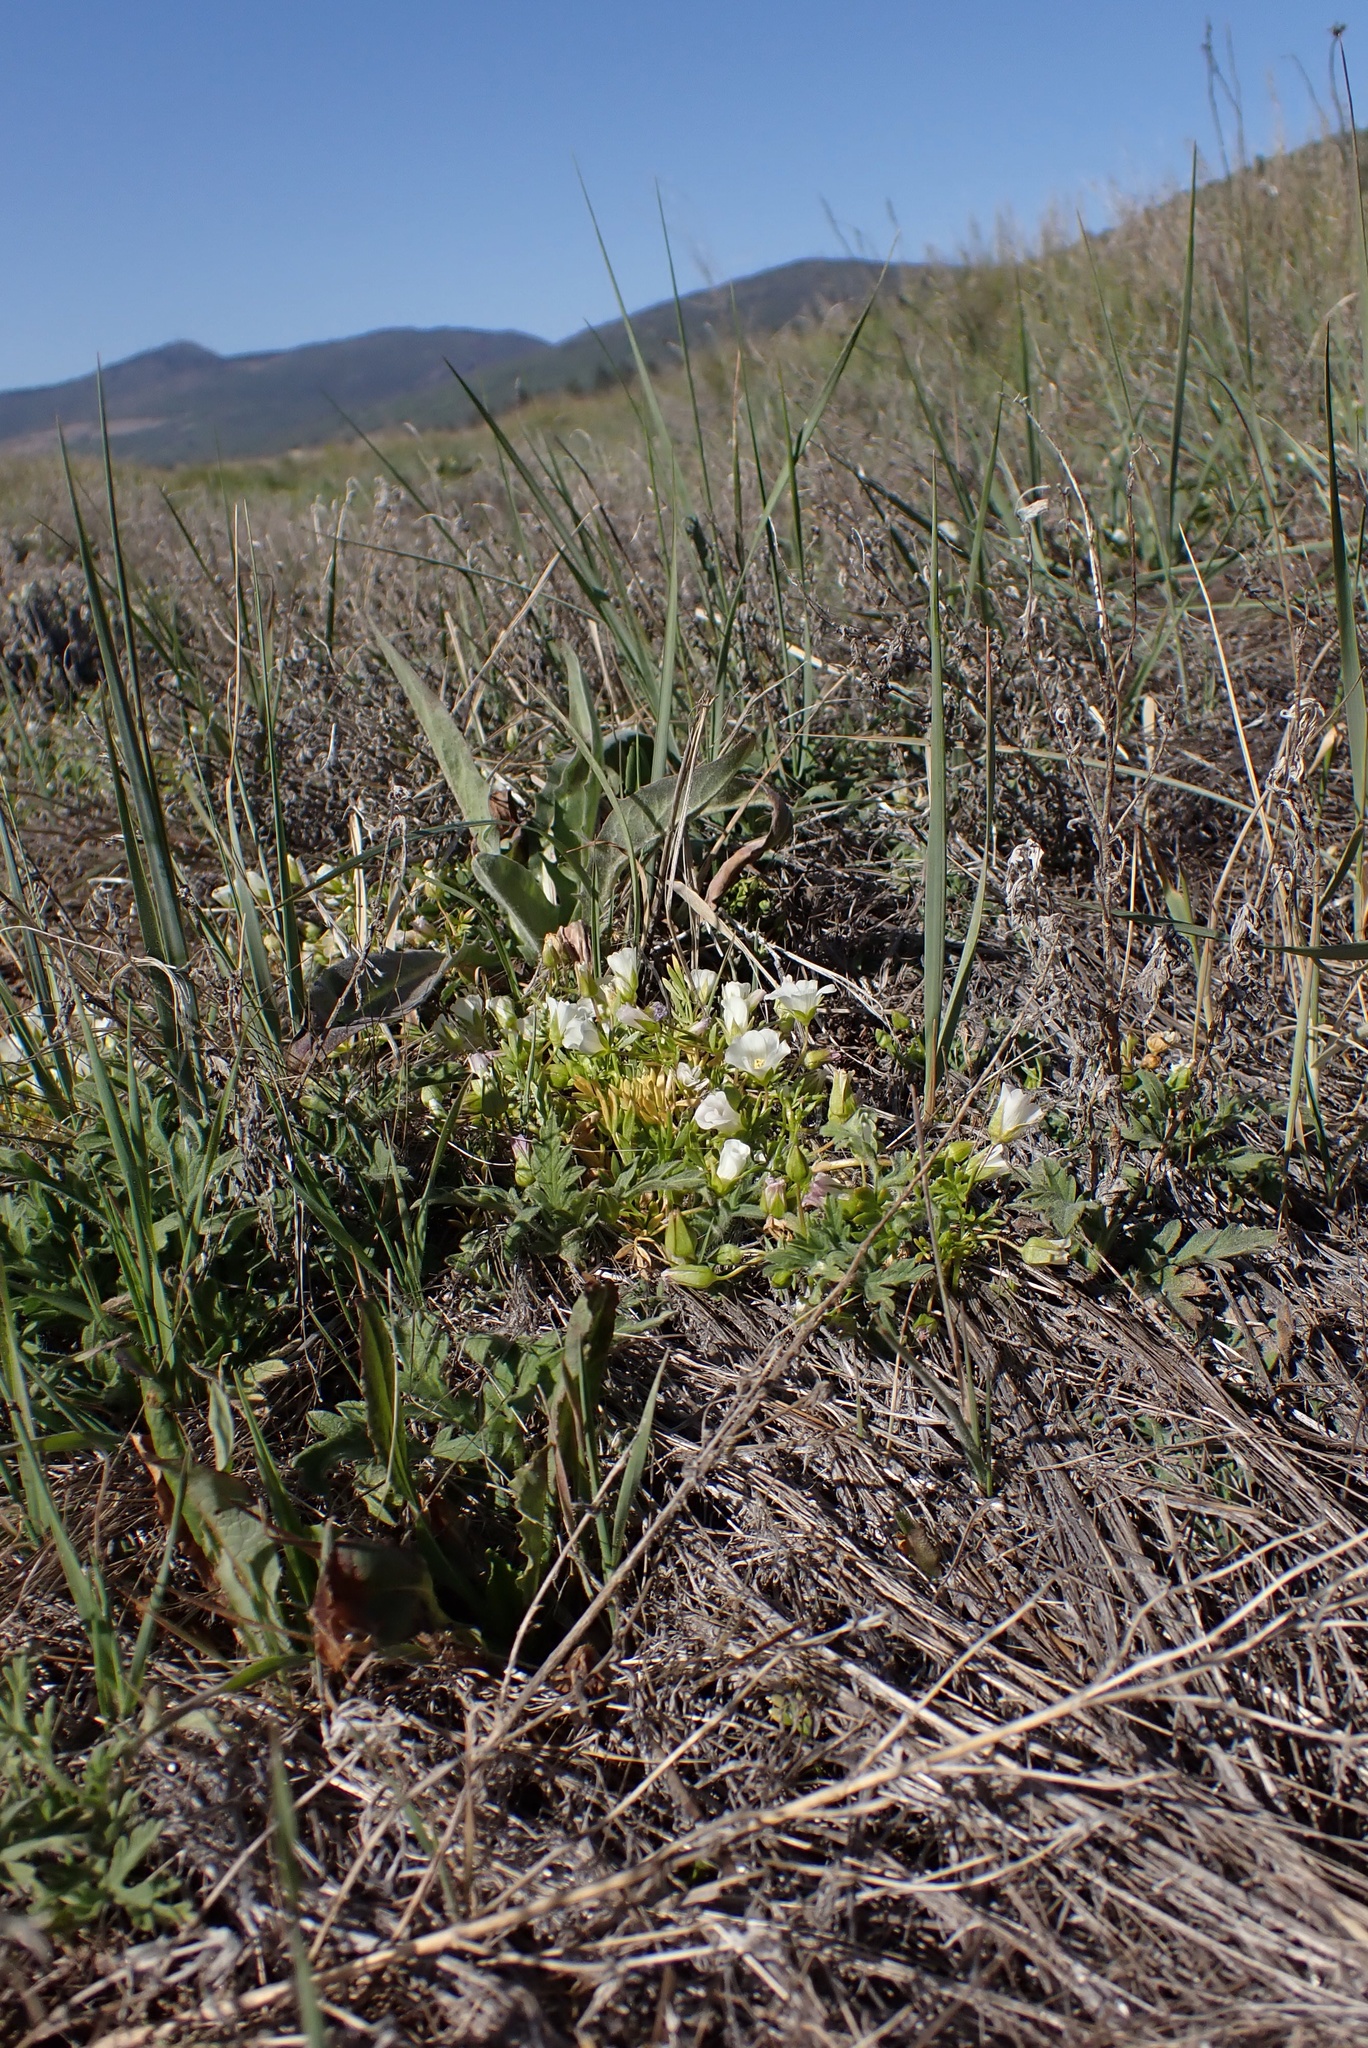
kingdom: Plantae
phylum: Tracheophyta
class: Magnoliopsida
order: Brassicales
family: Limnanthaceae
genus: Limnanthes
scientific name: Limnanthes alba
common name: Meadowfoam
